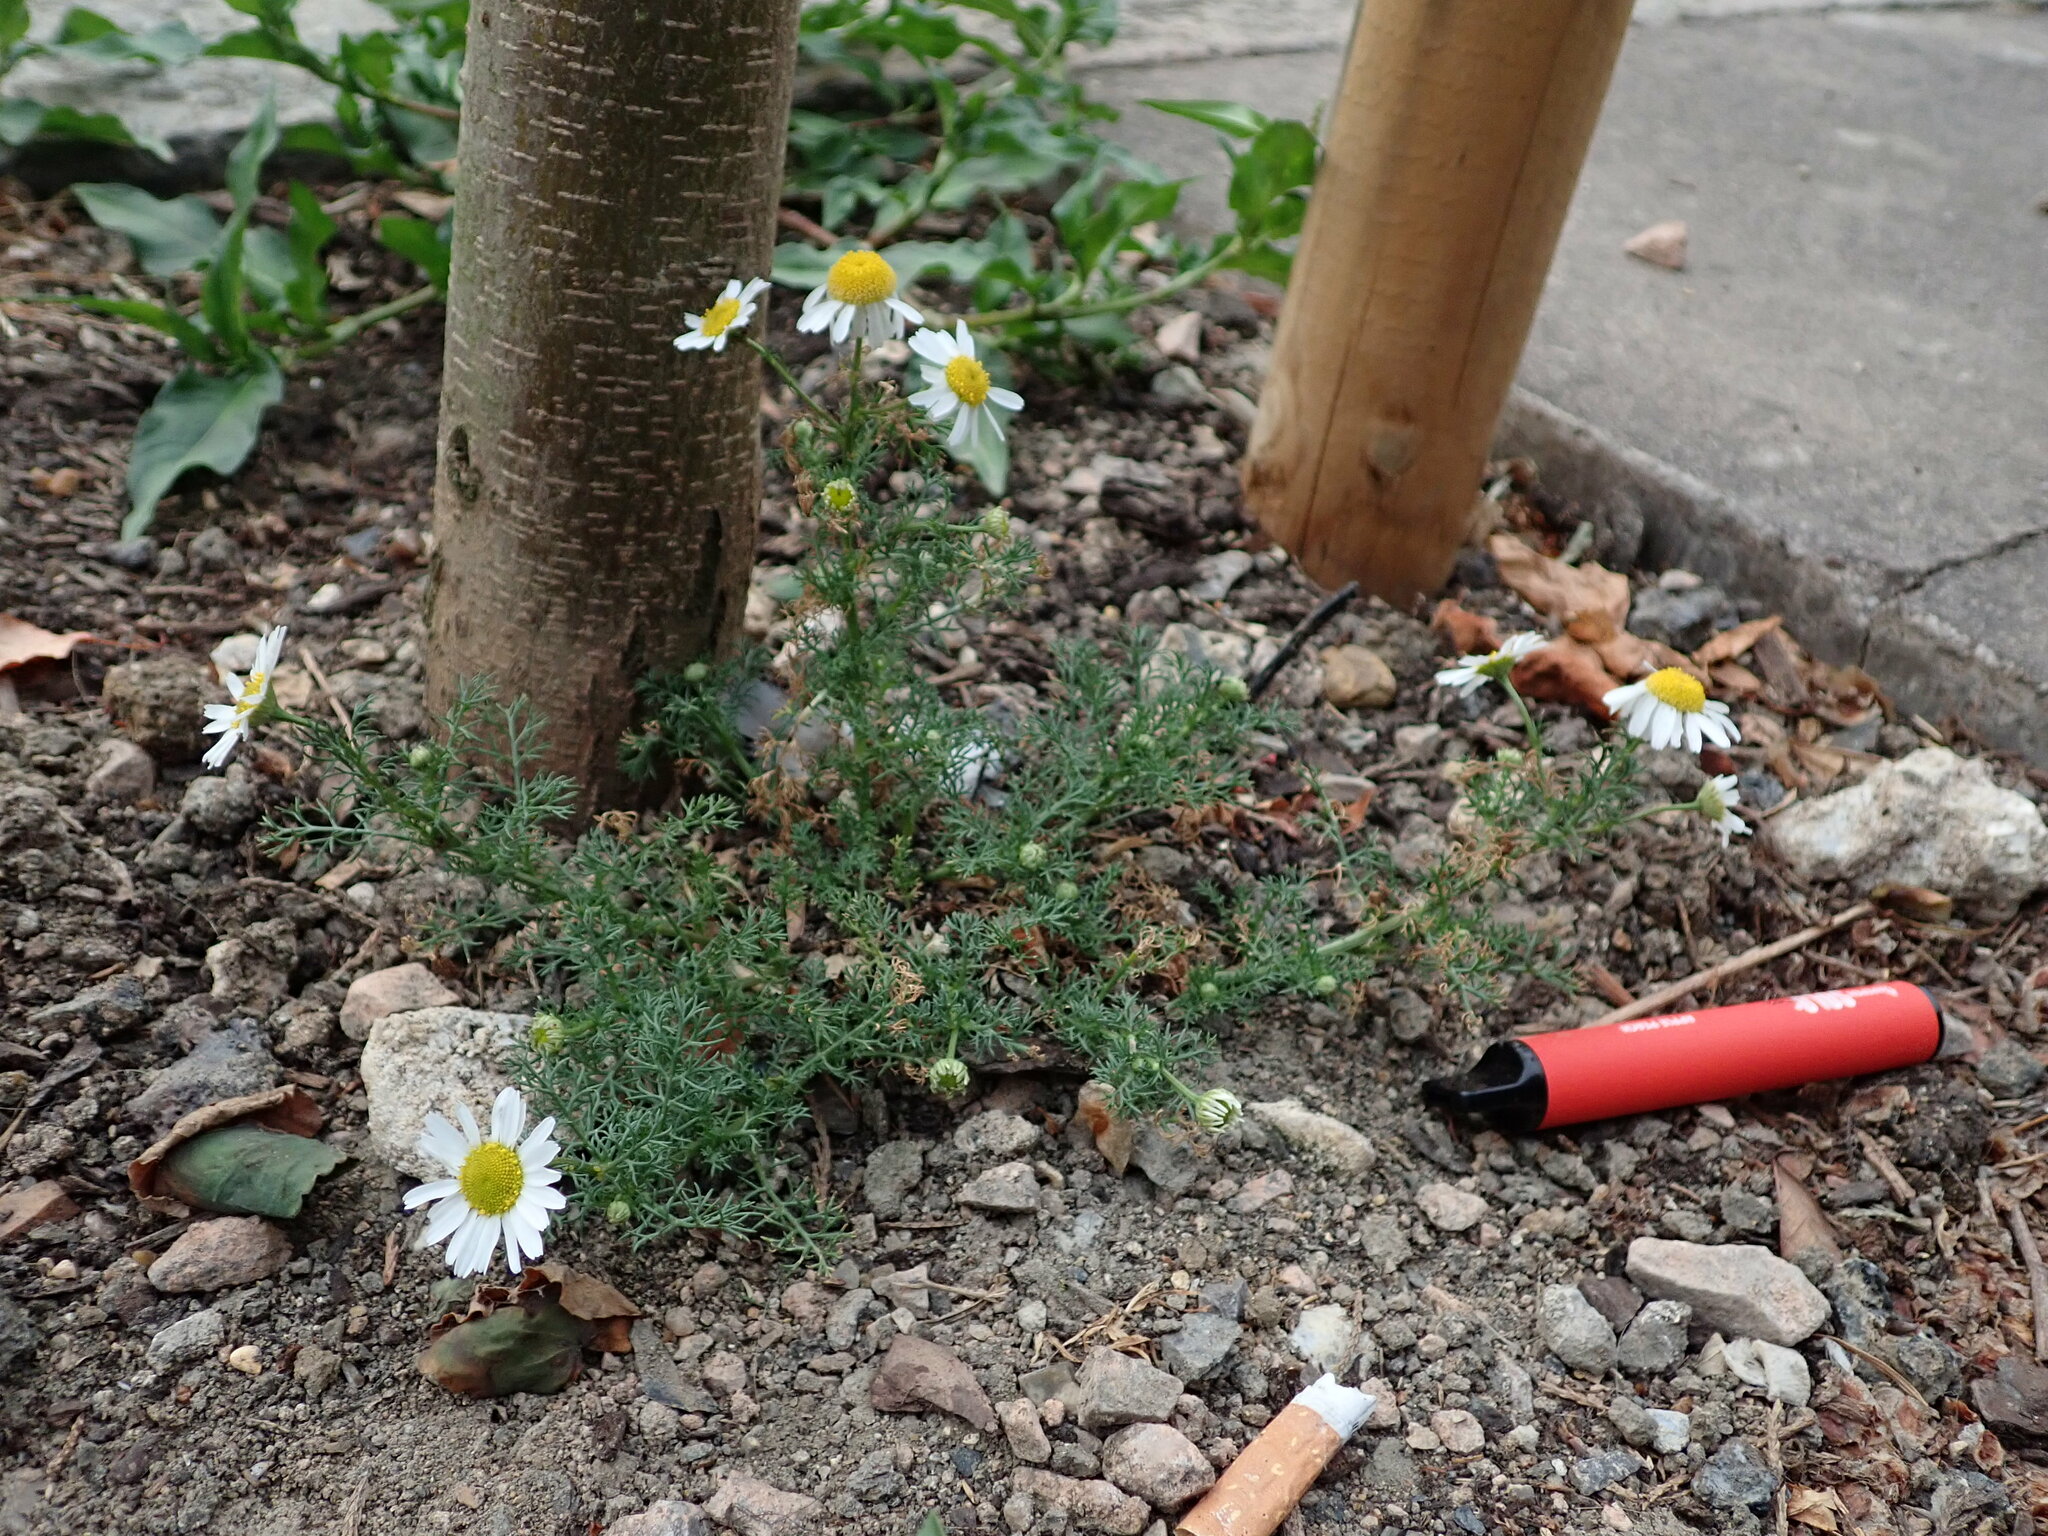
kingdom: Plantae
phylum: Tracheophyta
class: Magnoliopsida
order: Asterales
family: Asteraceae
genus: Tripleurospermum
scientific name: Tripleurospermum inodorum
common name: Scentless mayweed
